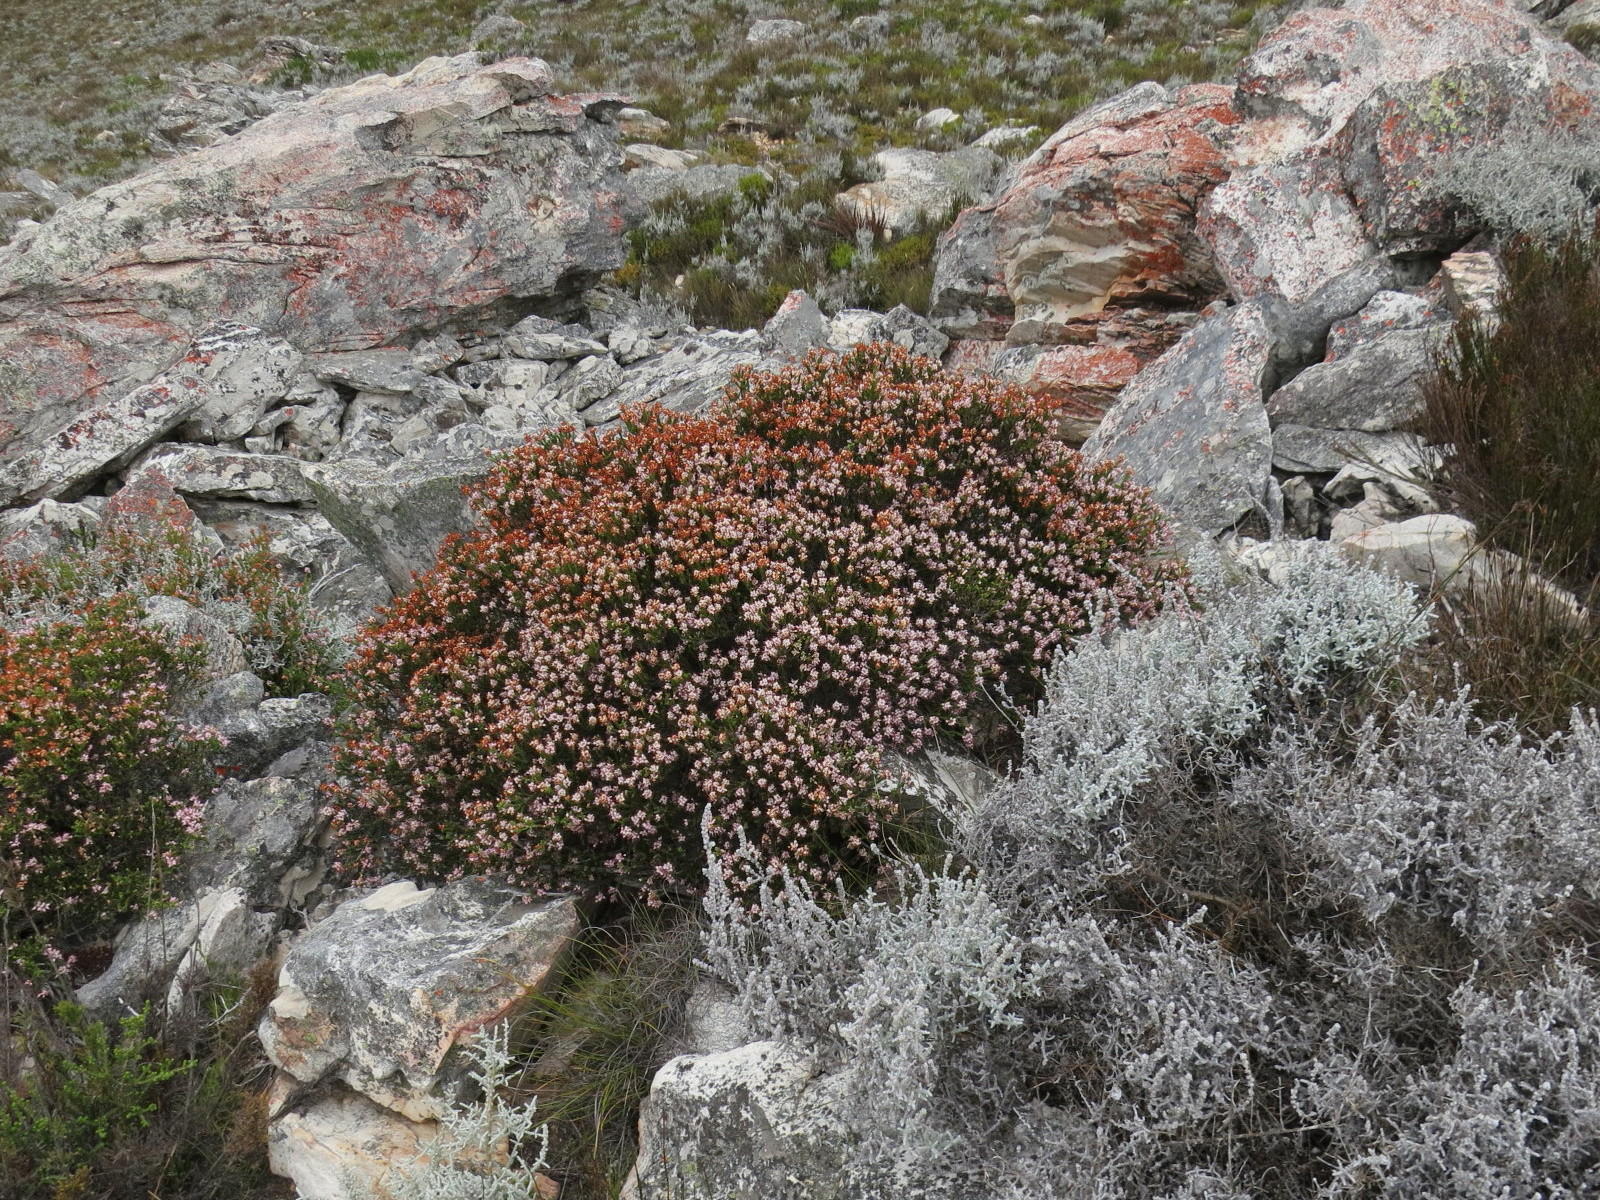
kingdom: Plantae
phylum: Tracheophyta
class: Magnoliopsida
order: Ericales
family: Ericaceae
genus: Erica
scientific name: Erica petraea
